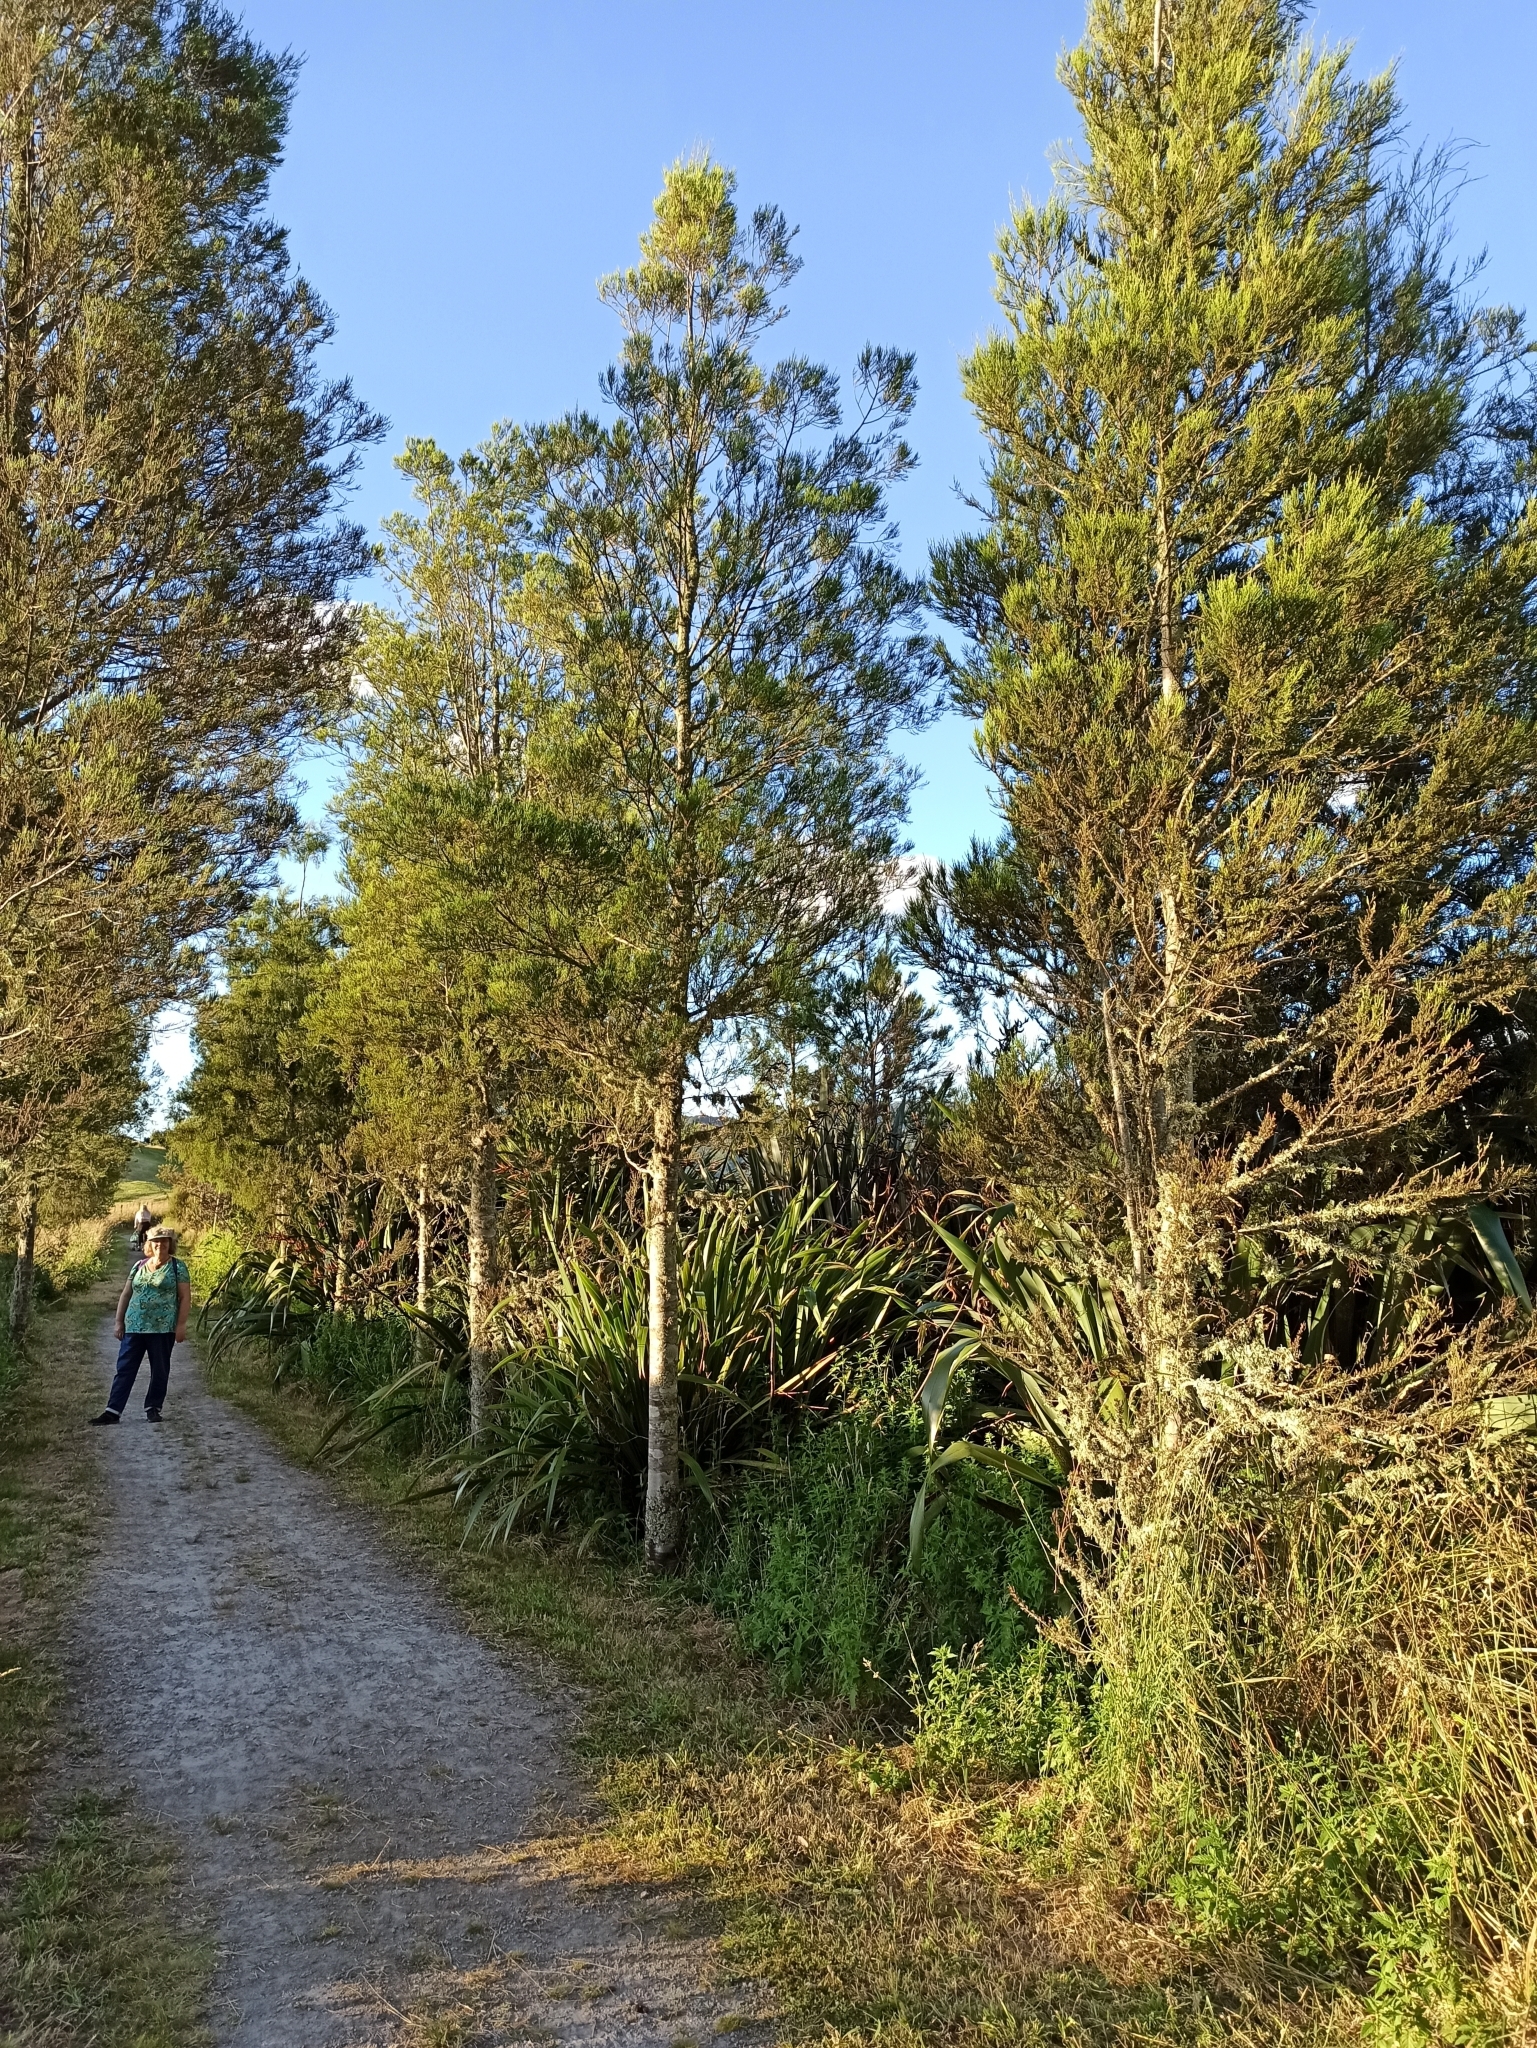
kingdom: Plantae
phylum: Tracheophyta
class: Pinopsida
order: Pinales
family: Podocarpaceae
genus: Dacrycarpus
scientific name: Dacrycarpus dacrydioides
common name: White pine
